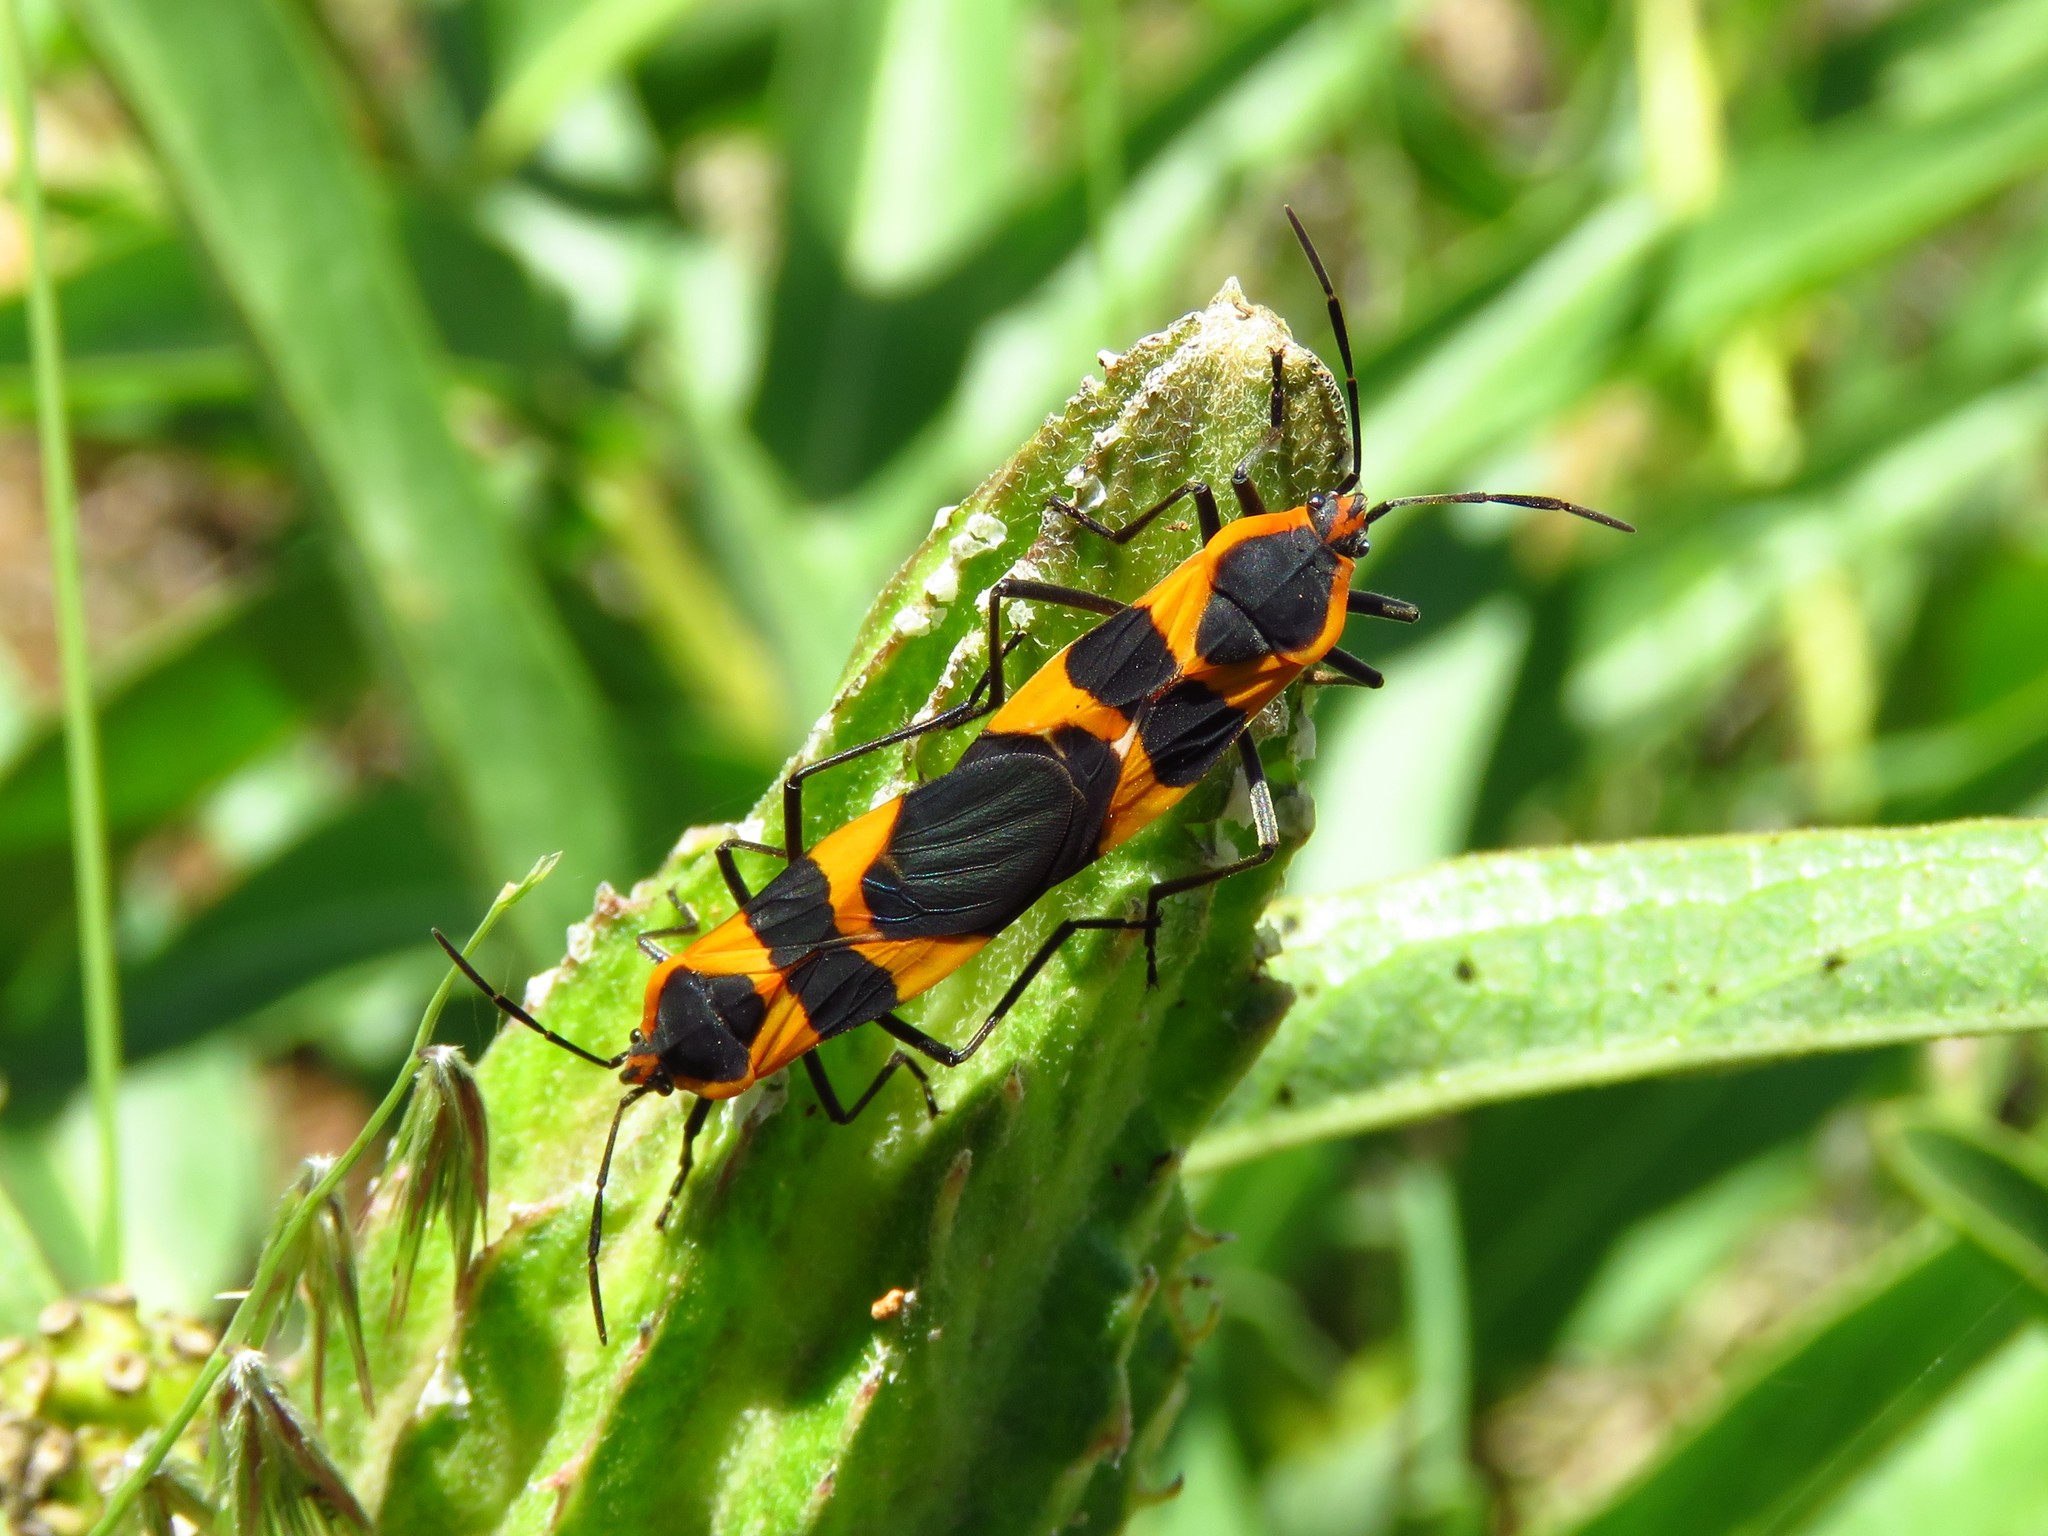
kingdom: Animalia
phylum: Arthropoda
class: Insecta
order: Hemiptera
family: Lygaeidae
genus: Oncopeltus
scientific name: Oncopeltus fasciatus
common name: Large milkweed bug
